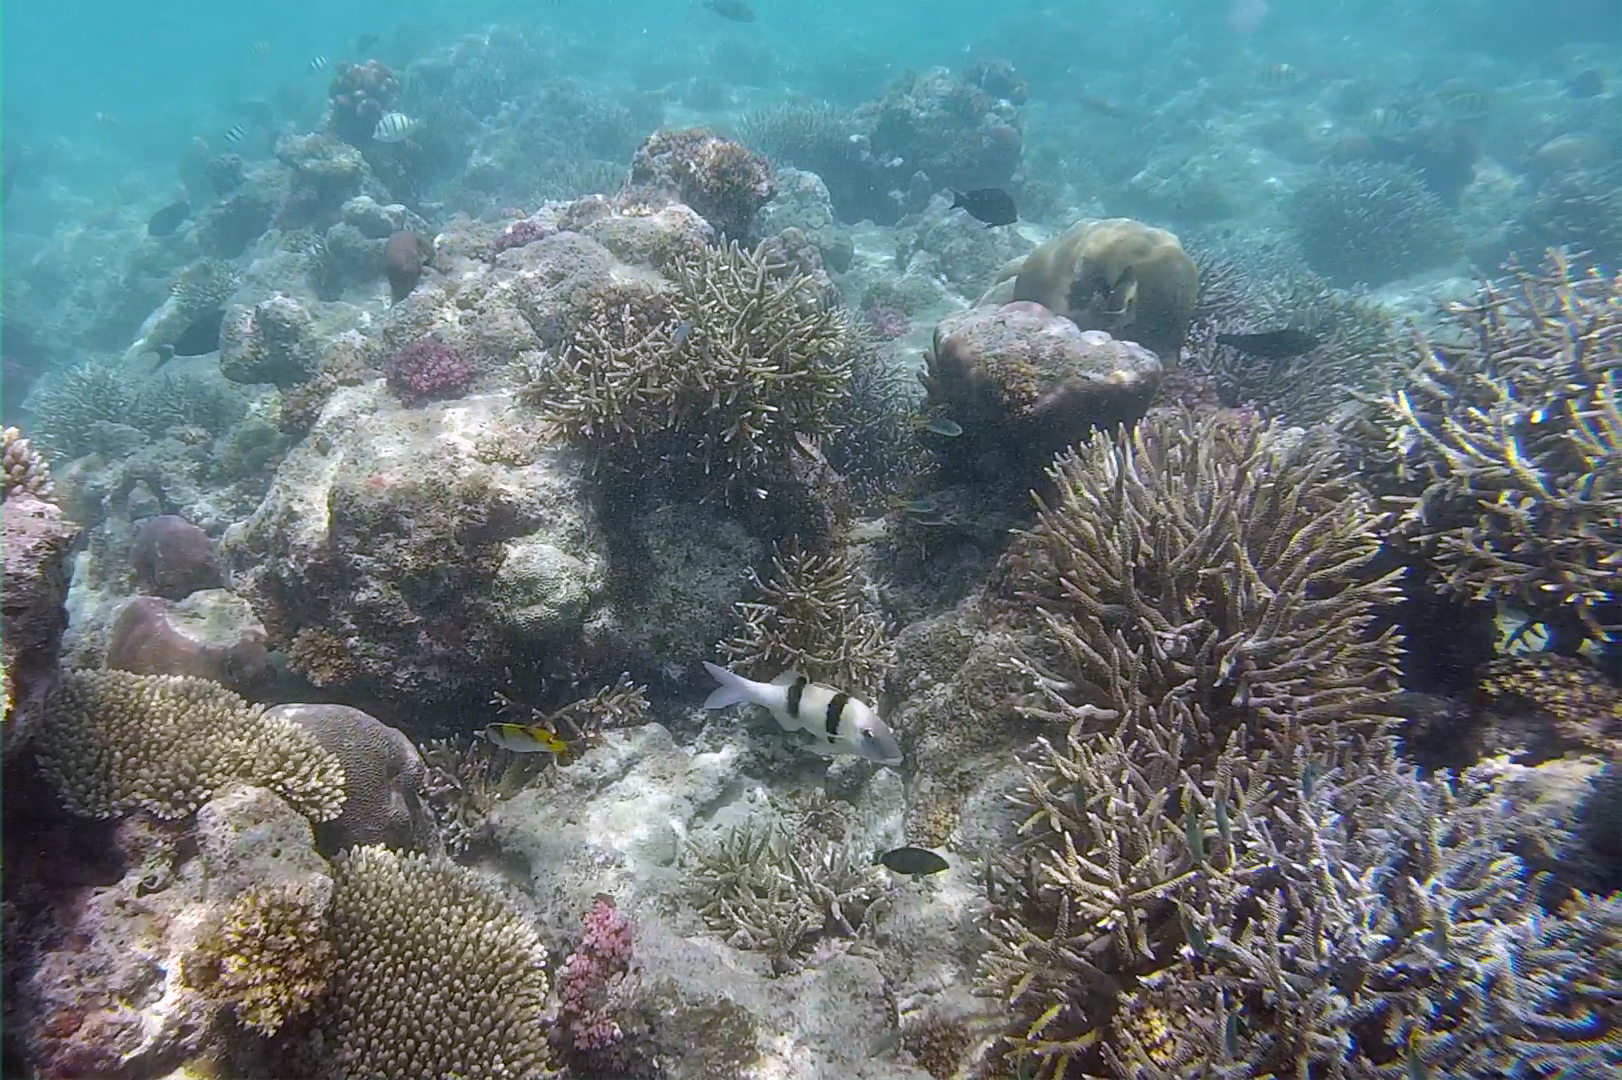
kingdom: Animalia
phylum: Chordata
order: Perciformes
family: Mullidae
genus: Parupeneus
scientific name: Parupeneus trifasciatus
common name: Doublebar goatfish
